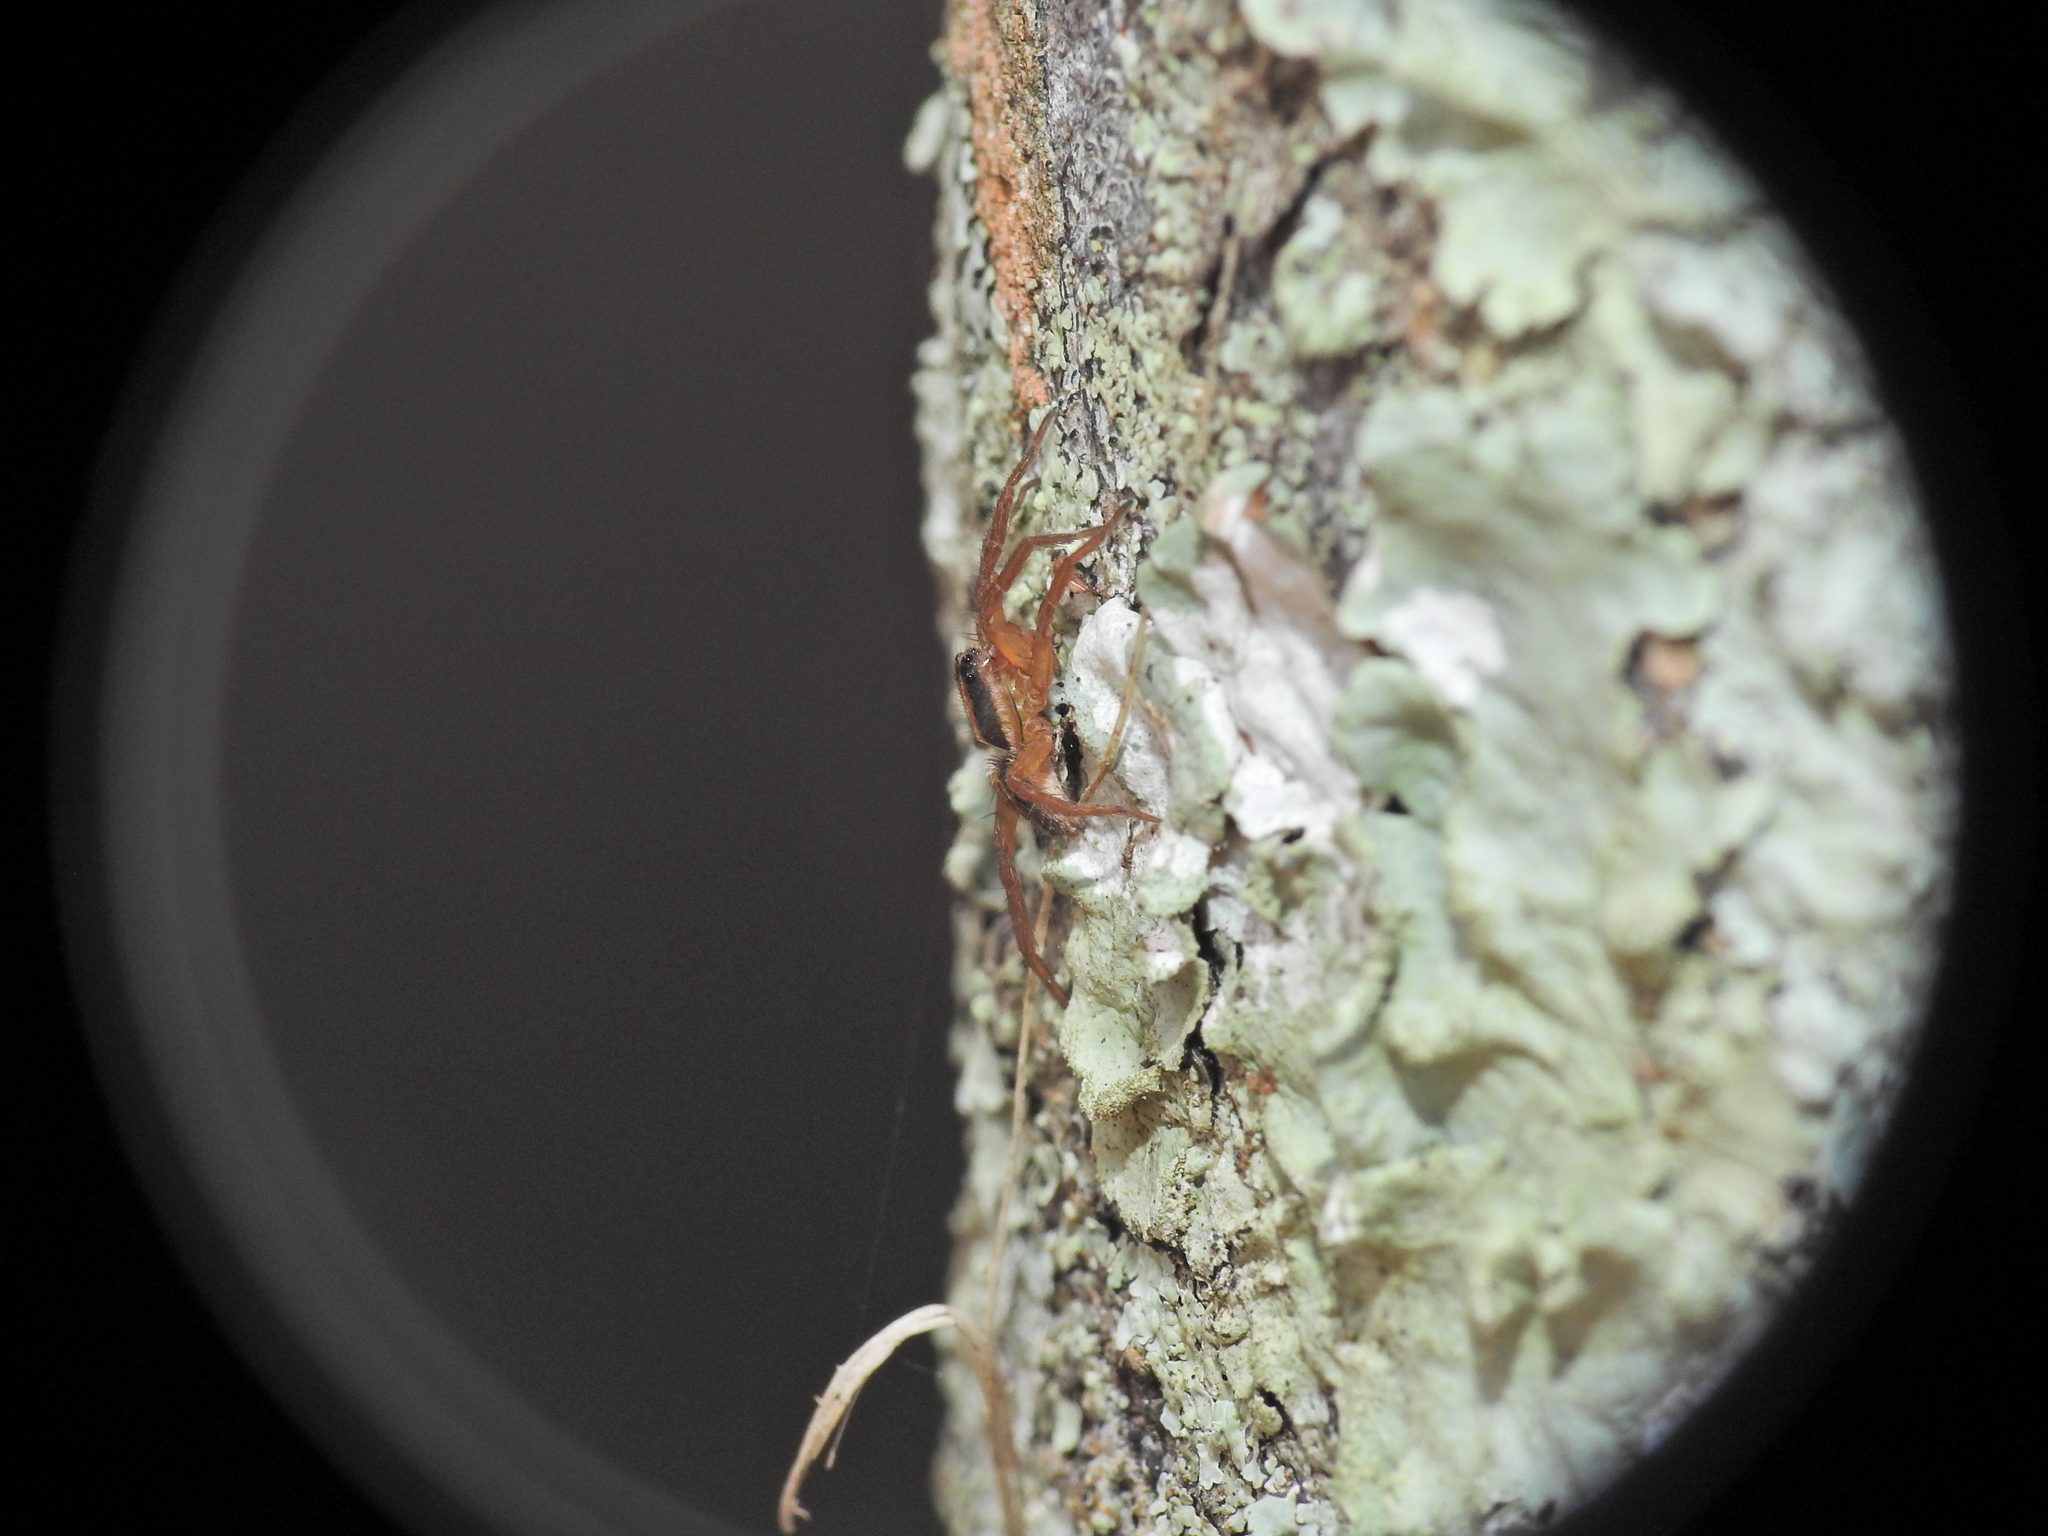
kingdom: Animalia
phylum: Arthropoda
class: Arachnida
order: Araneae
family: Lycosidae
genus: Venatrix
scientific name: Venatrix furcillata
